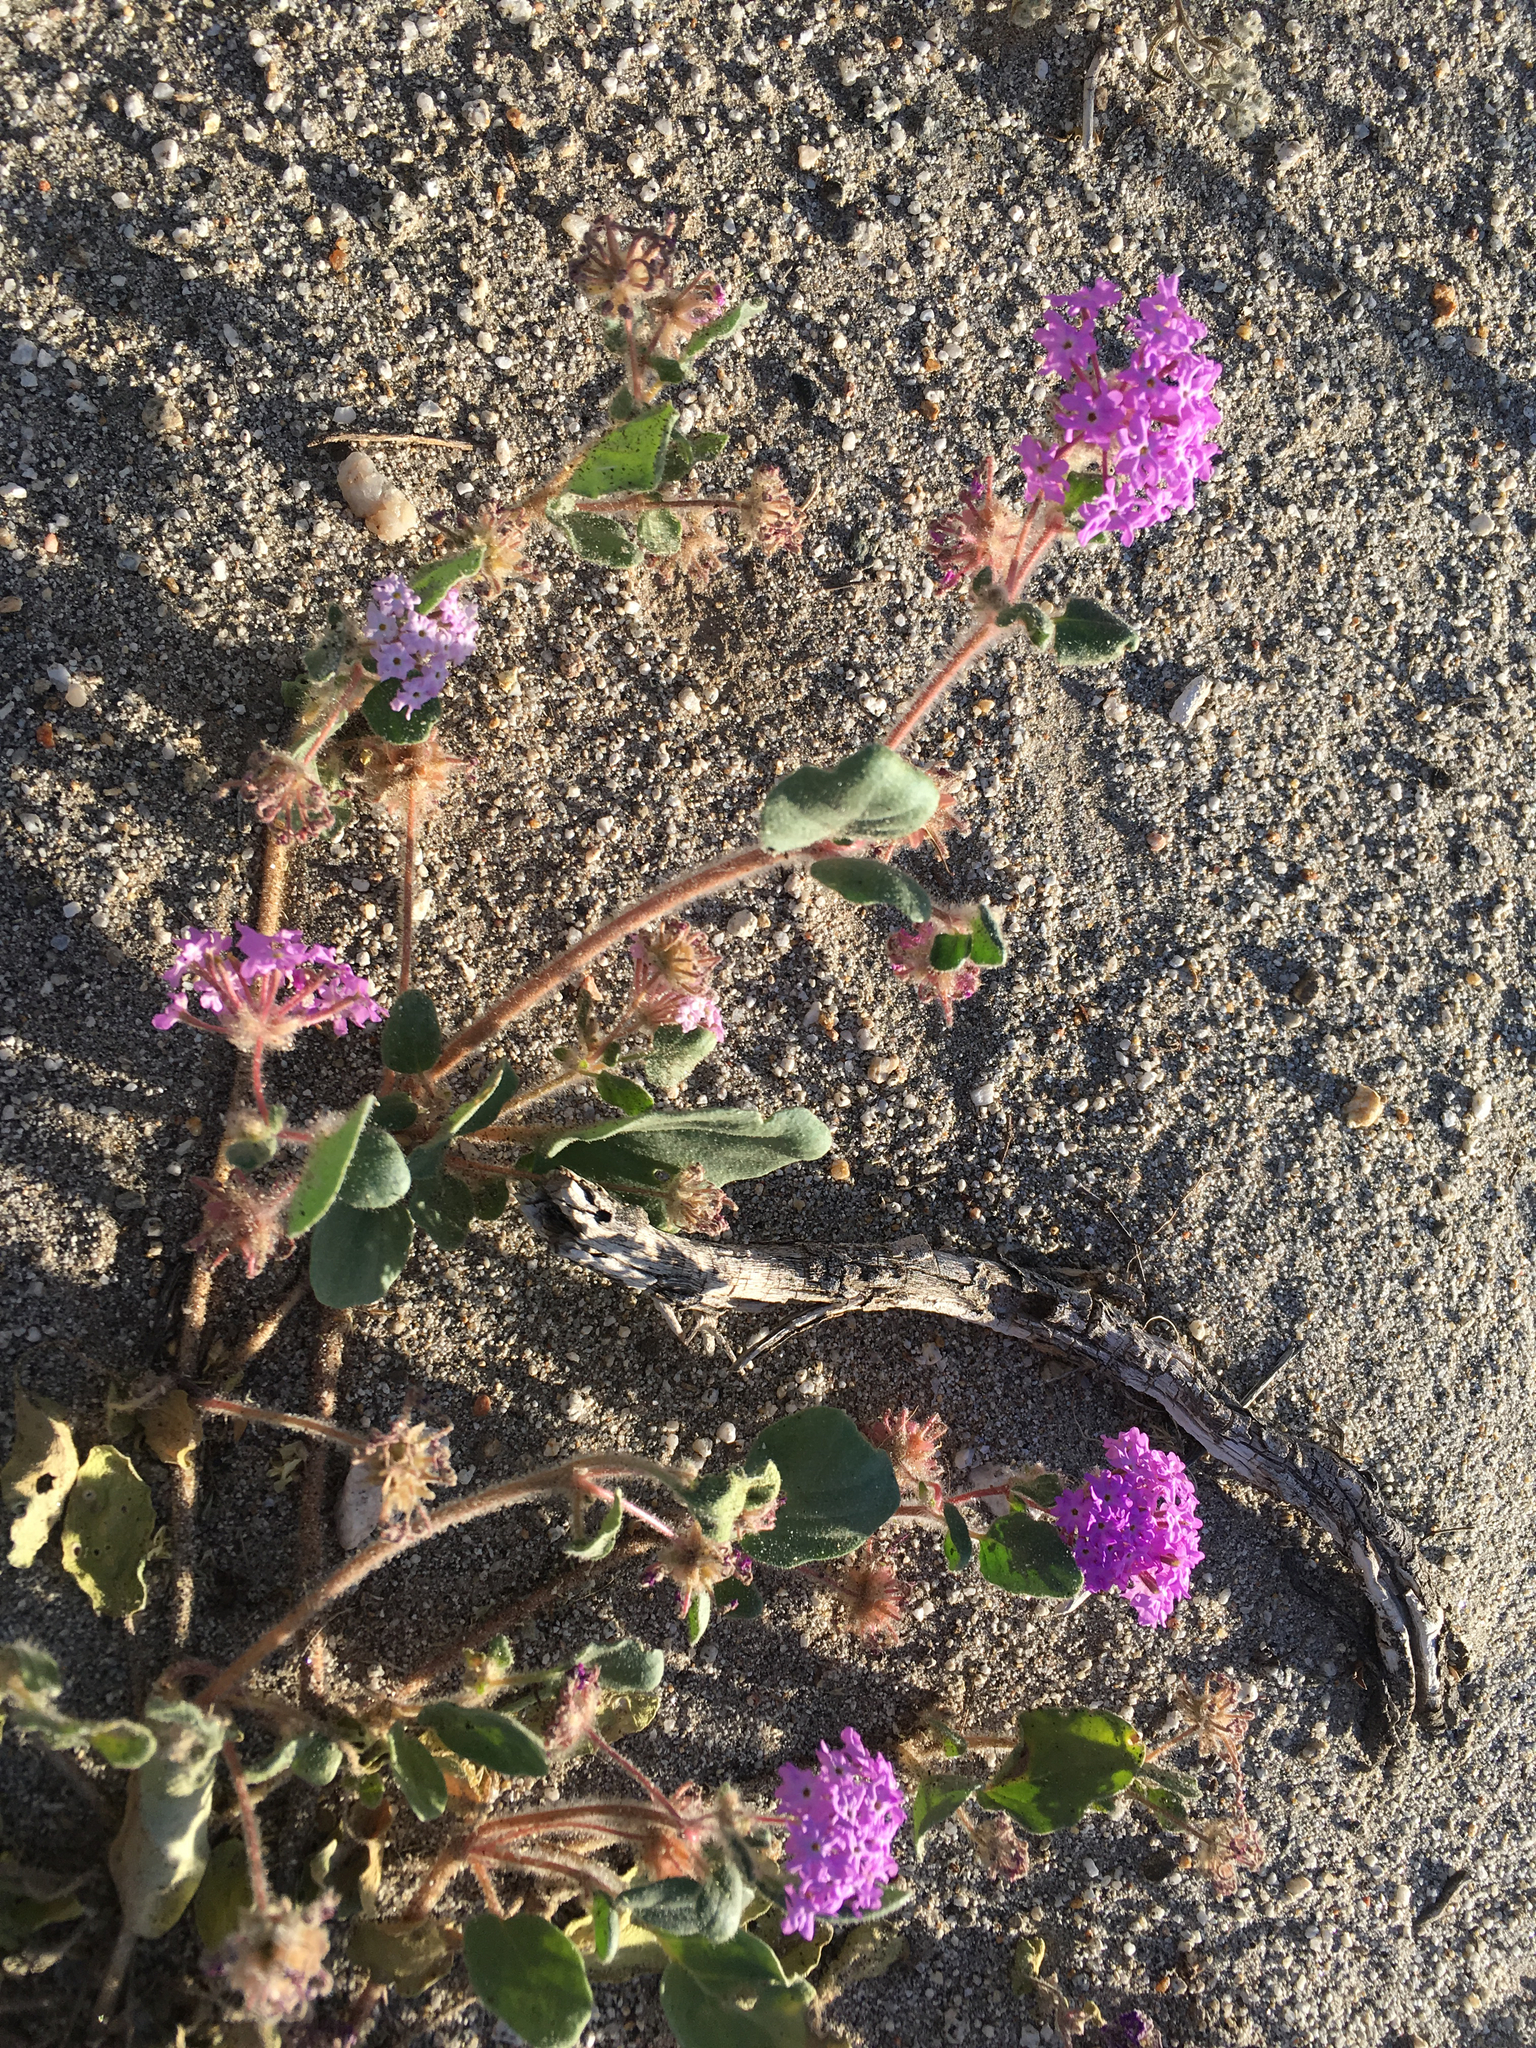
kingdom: Plantae
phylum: Tracheophyta
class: Magnoliopsida
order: Caryophyllales
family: Nyctaginaceae
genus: Abronia
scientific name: Abronia villosa
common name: Desert sand-verbena
